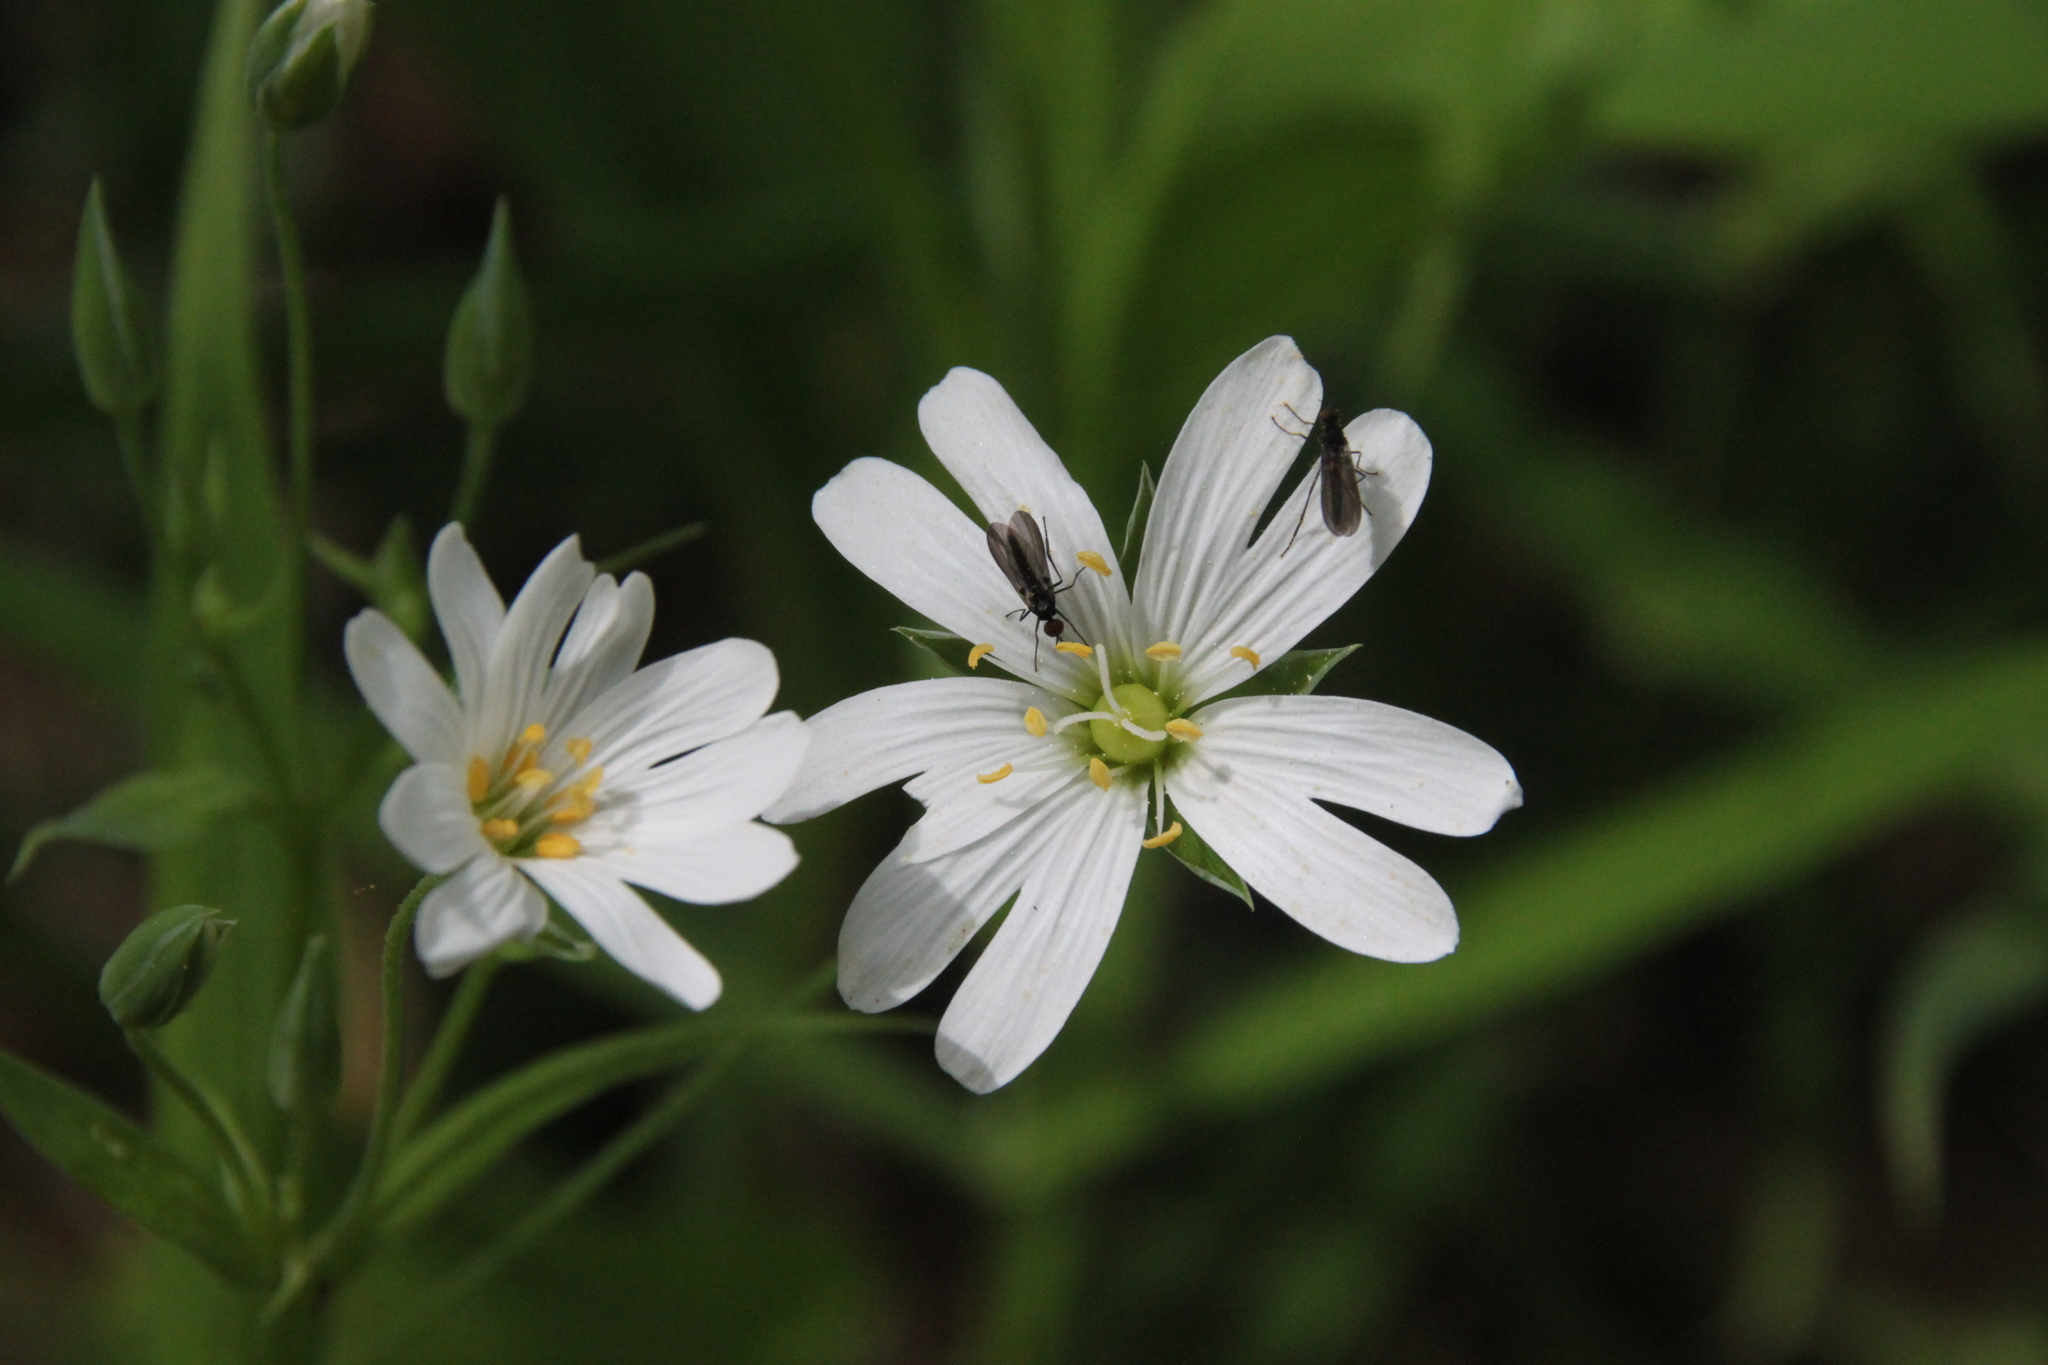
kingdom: Plantae
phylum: Tracheophyta
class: Magnoliopsida
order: Caryophyllales
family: Caryophyllaceae
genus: Rabelera
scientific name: Rabelera holostea
